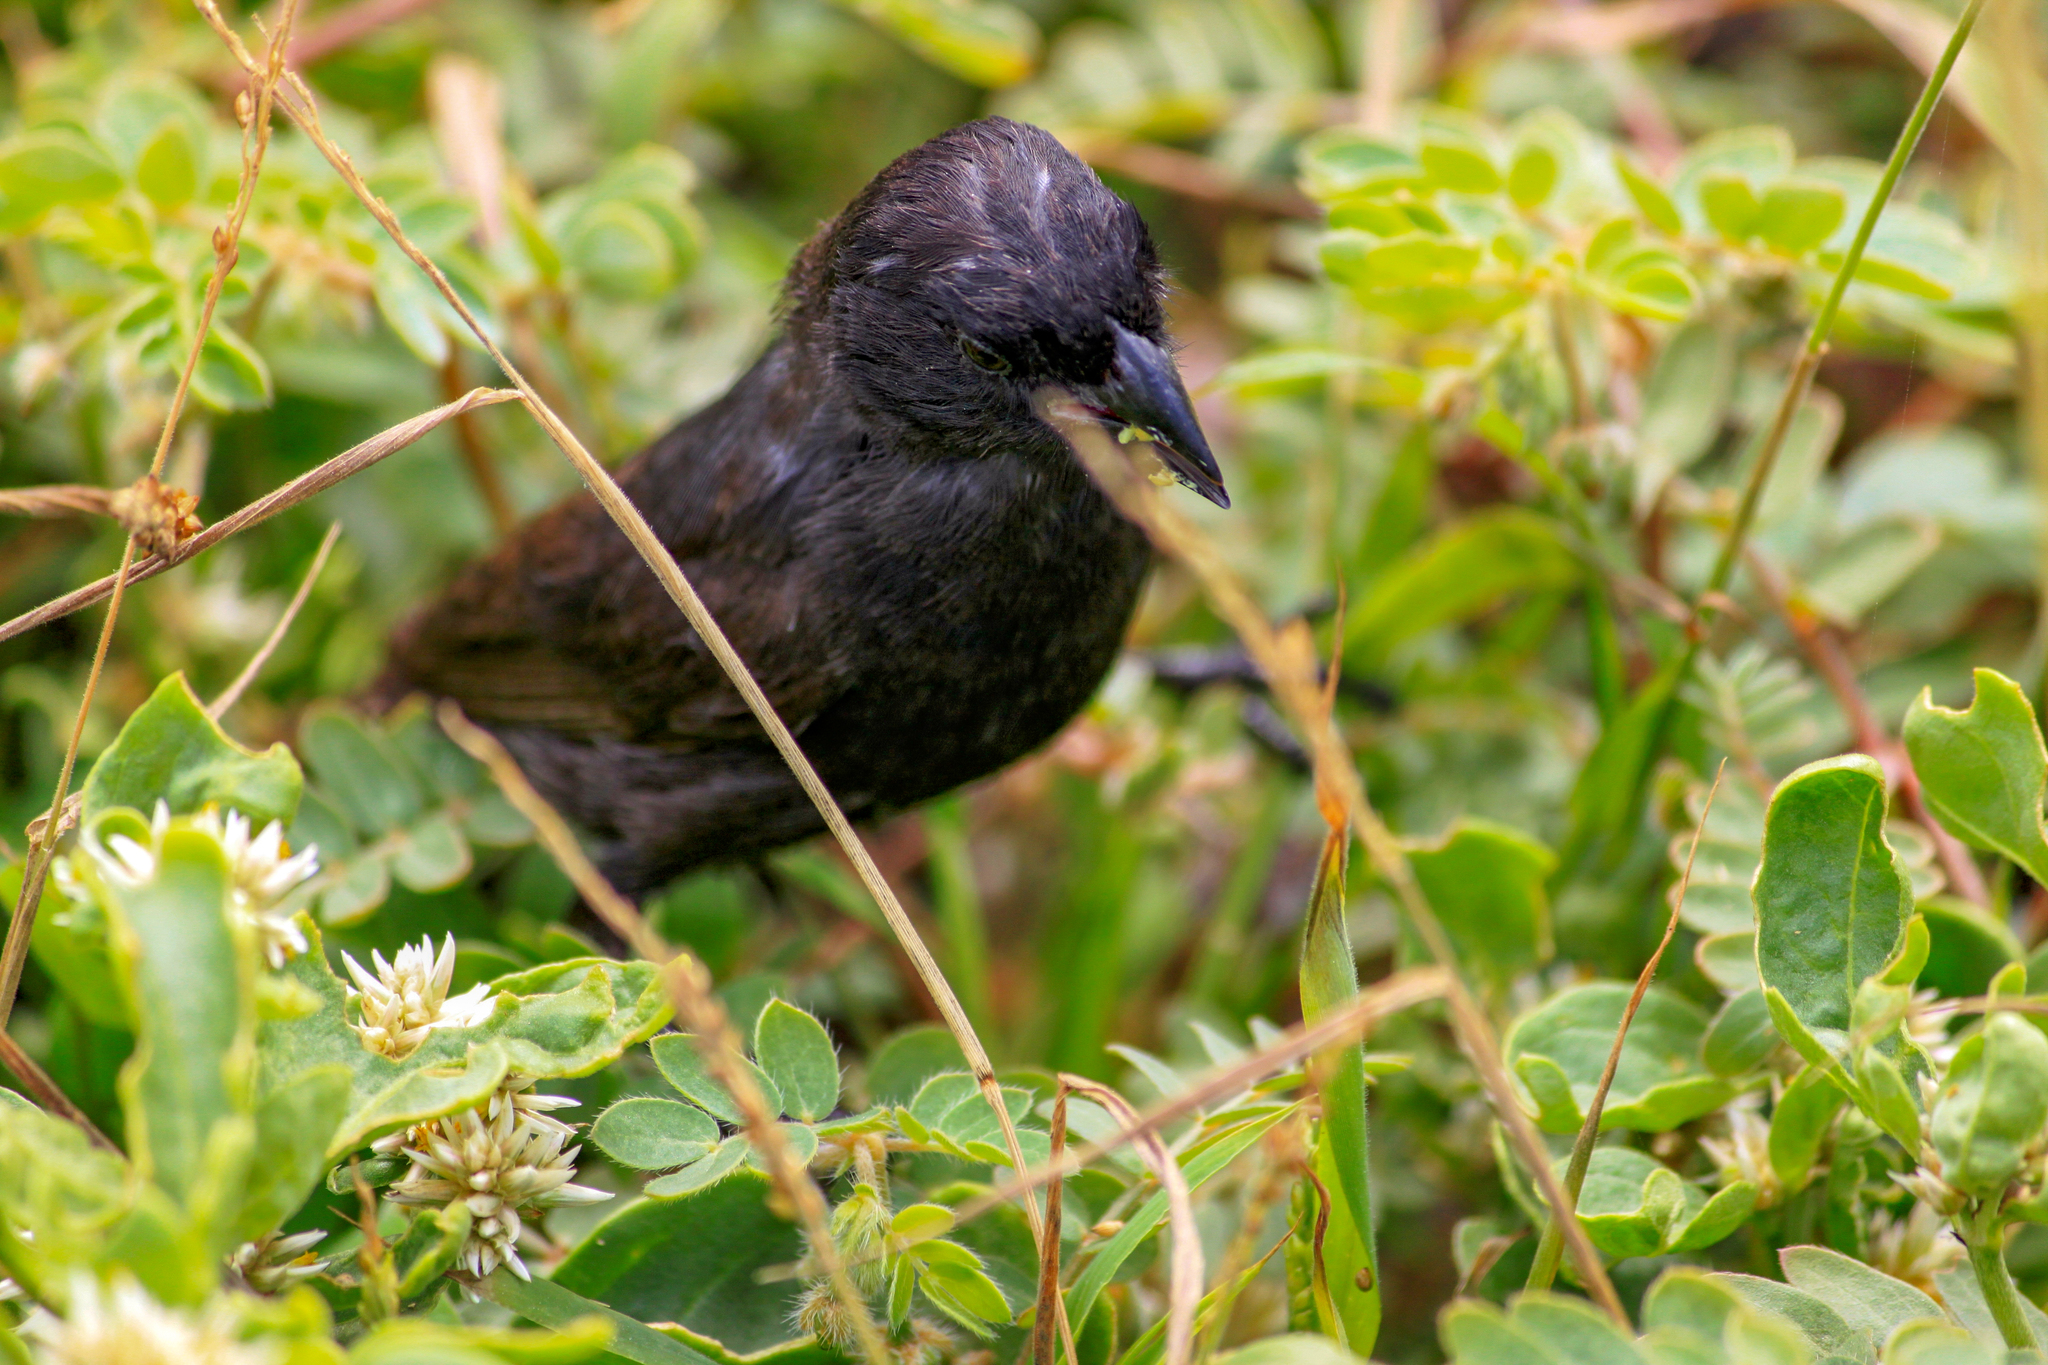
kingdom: Animalia
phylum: Chordata
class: Aves
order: Passeriformes
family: Thraupidae
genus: Geospiza
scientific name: Geospiza conirostris
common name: Large cactus finch
